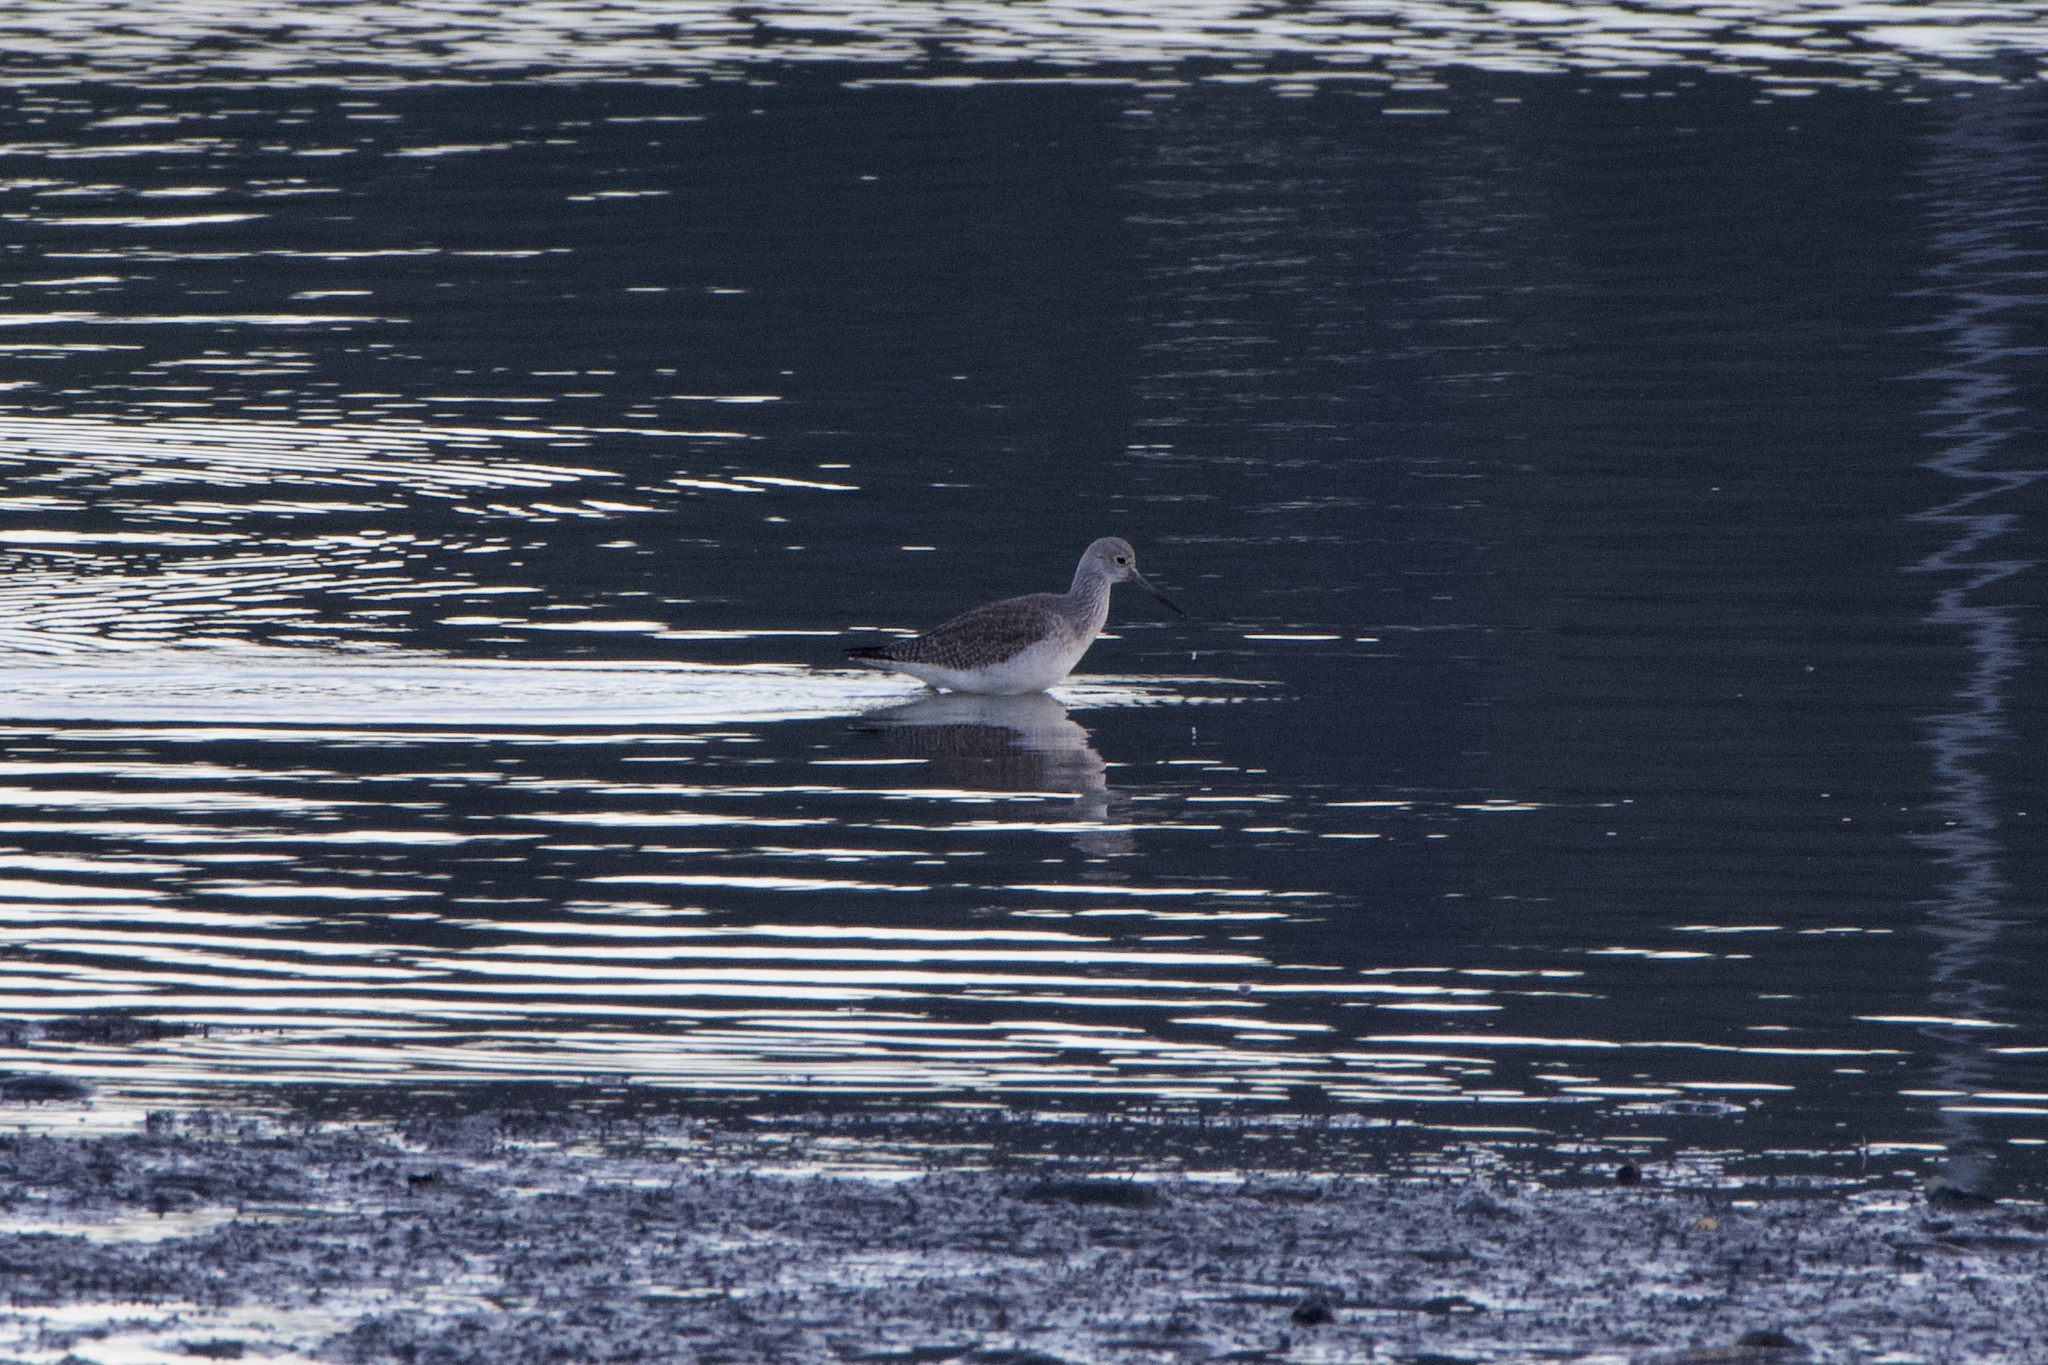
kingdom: Animalia
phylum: Chordata
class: Aves
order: Charadriiformes
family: Scolopacidae
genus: Tringa
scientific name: Tringa melanoleuca
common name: Greater yellowlegs
